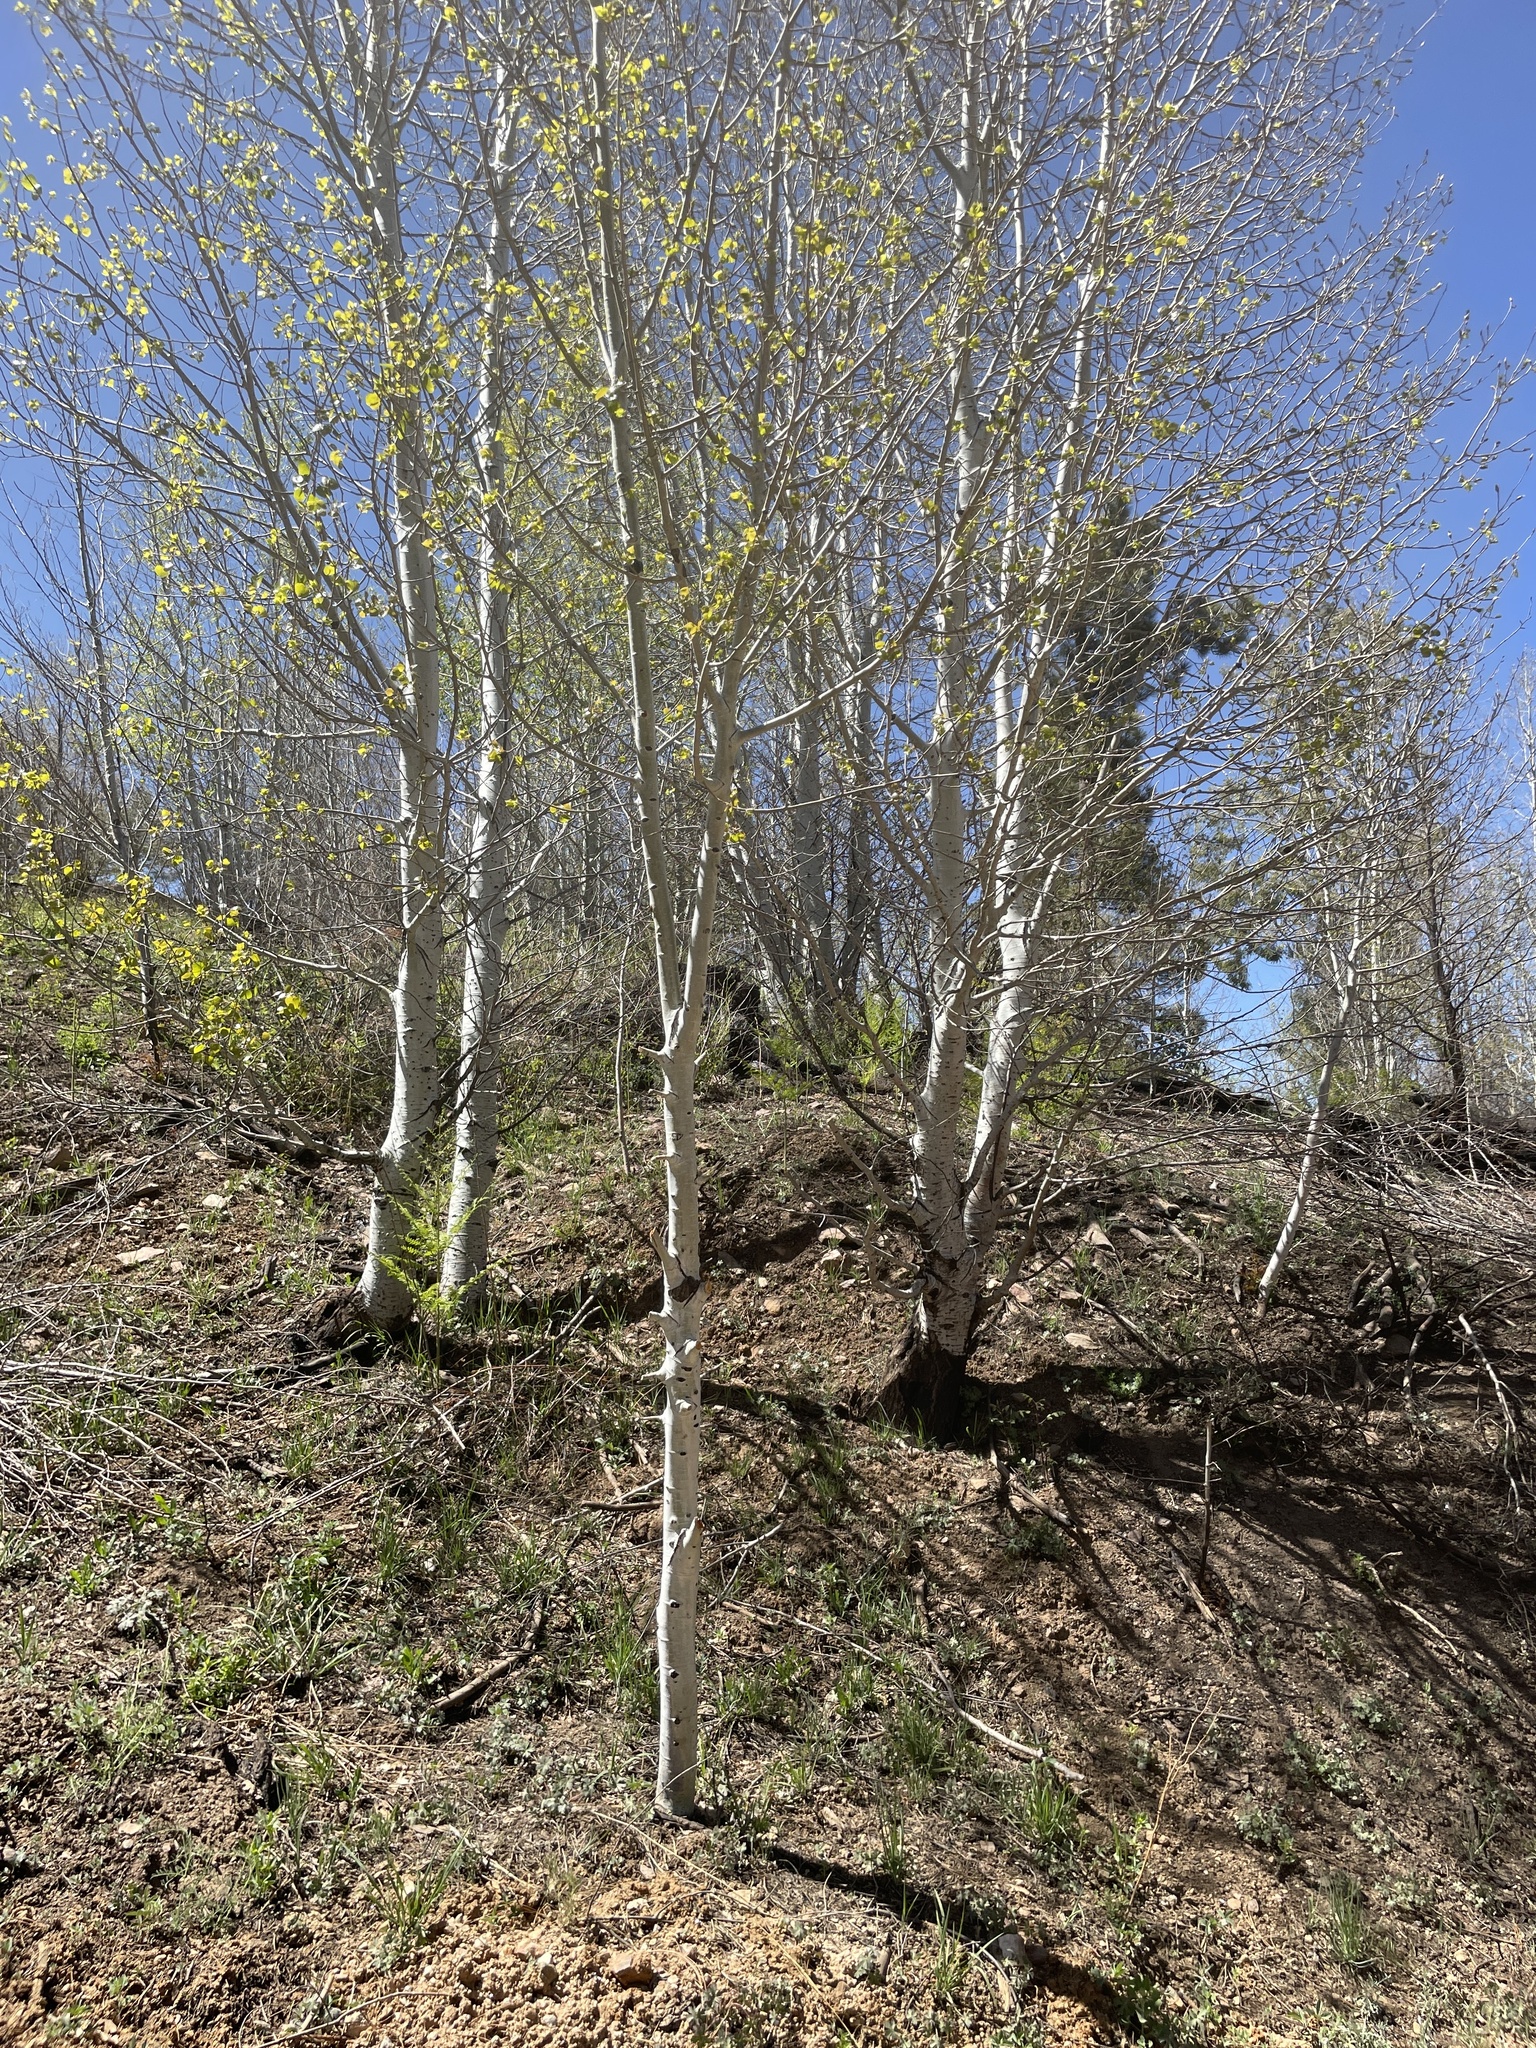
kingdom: Plantae
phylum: Tracheophyta
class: Magnoliopsida
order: Malpighiales
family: Salicaceae
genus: Populus
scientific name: Populus tremuloides
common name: Quaking aspen
